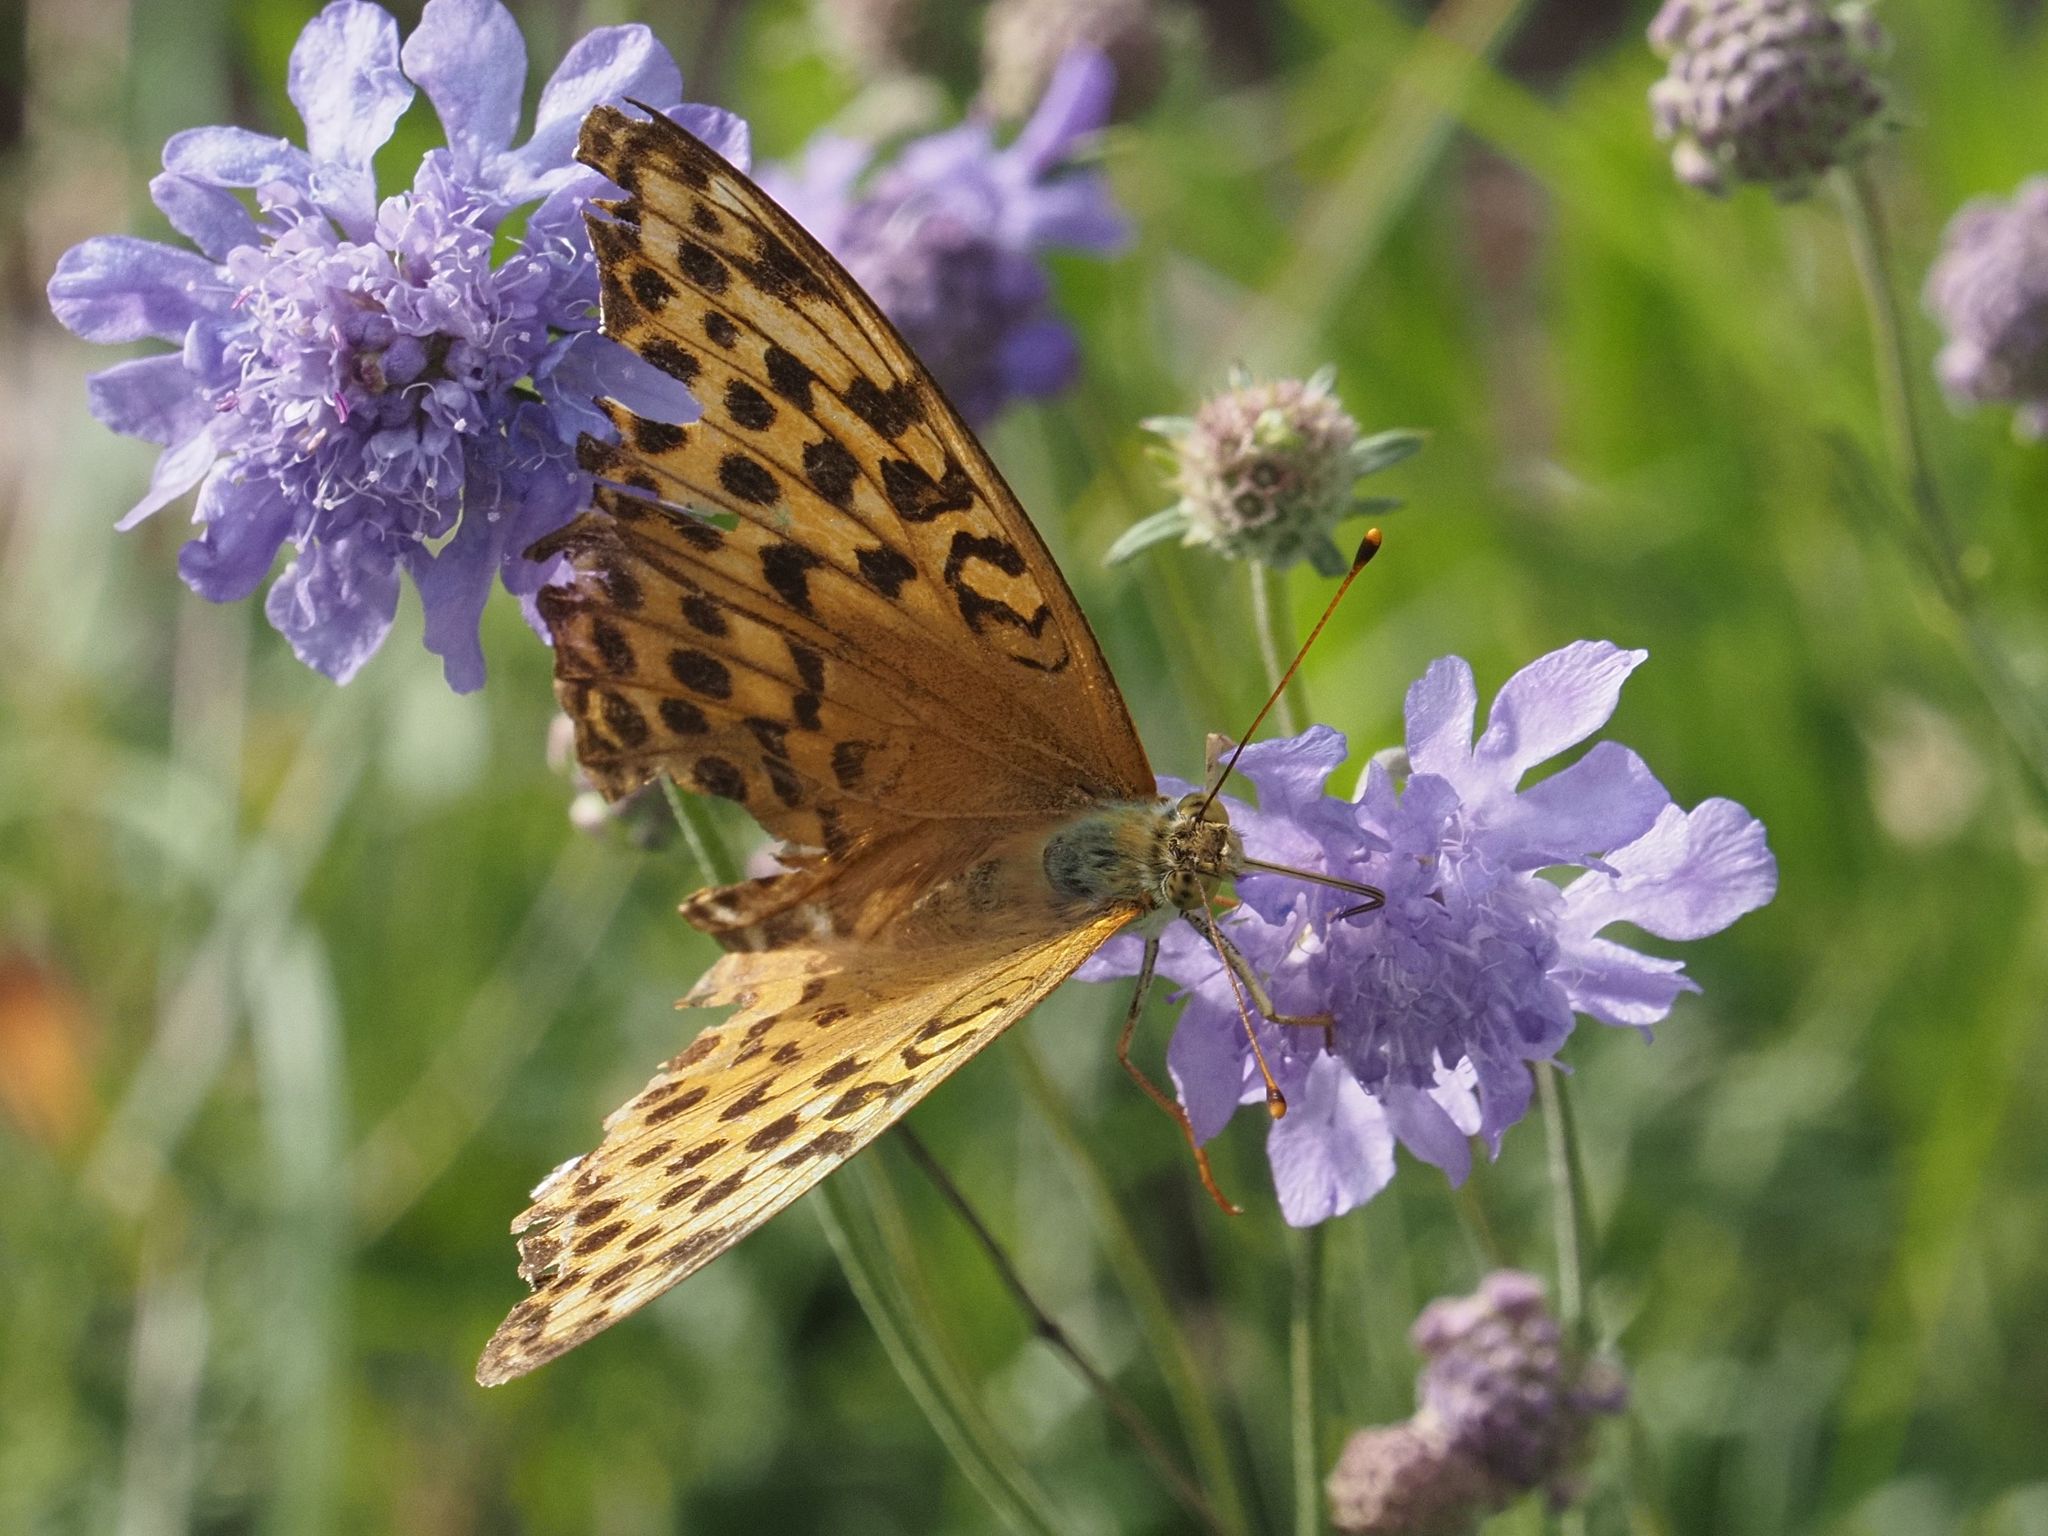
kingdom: Animalia
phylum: Arthropoda
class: Insecta
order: Lepidoptera
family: Nymphalidae
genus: Argynnis
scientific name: Argynnis paphia
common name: Silver-washed fritillary
